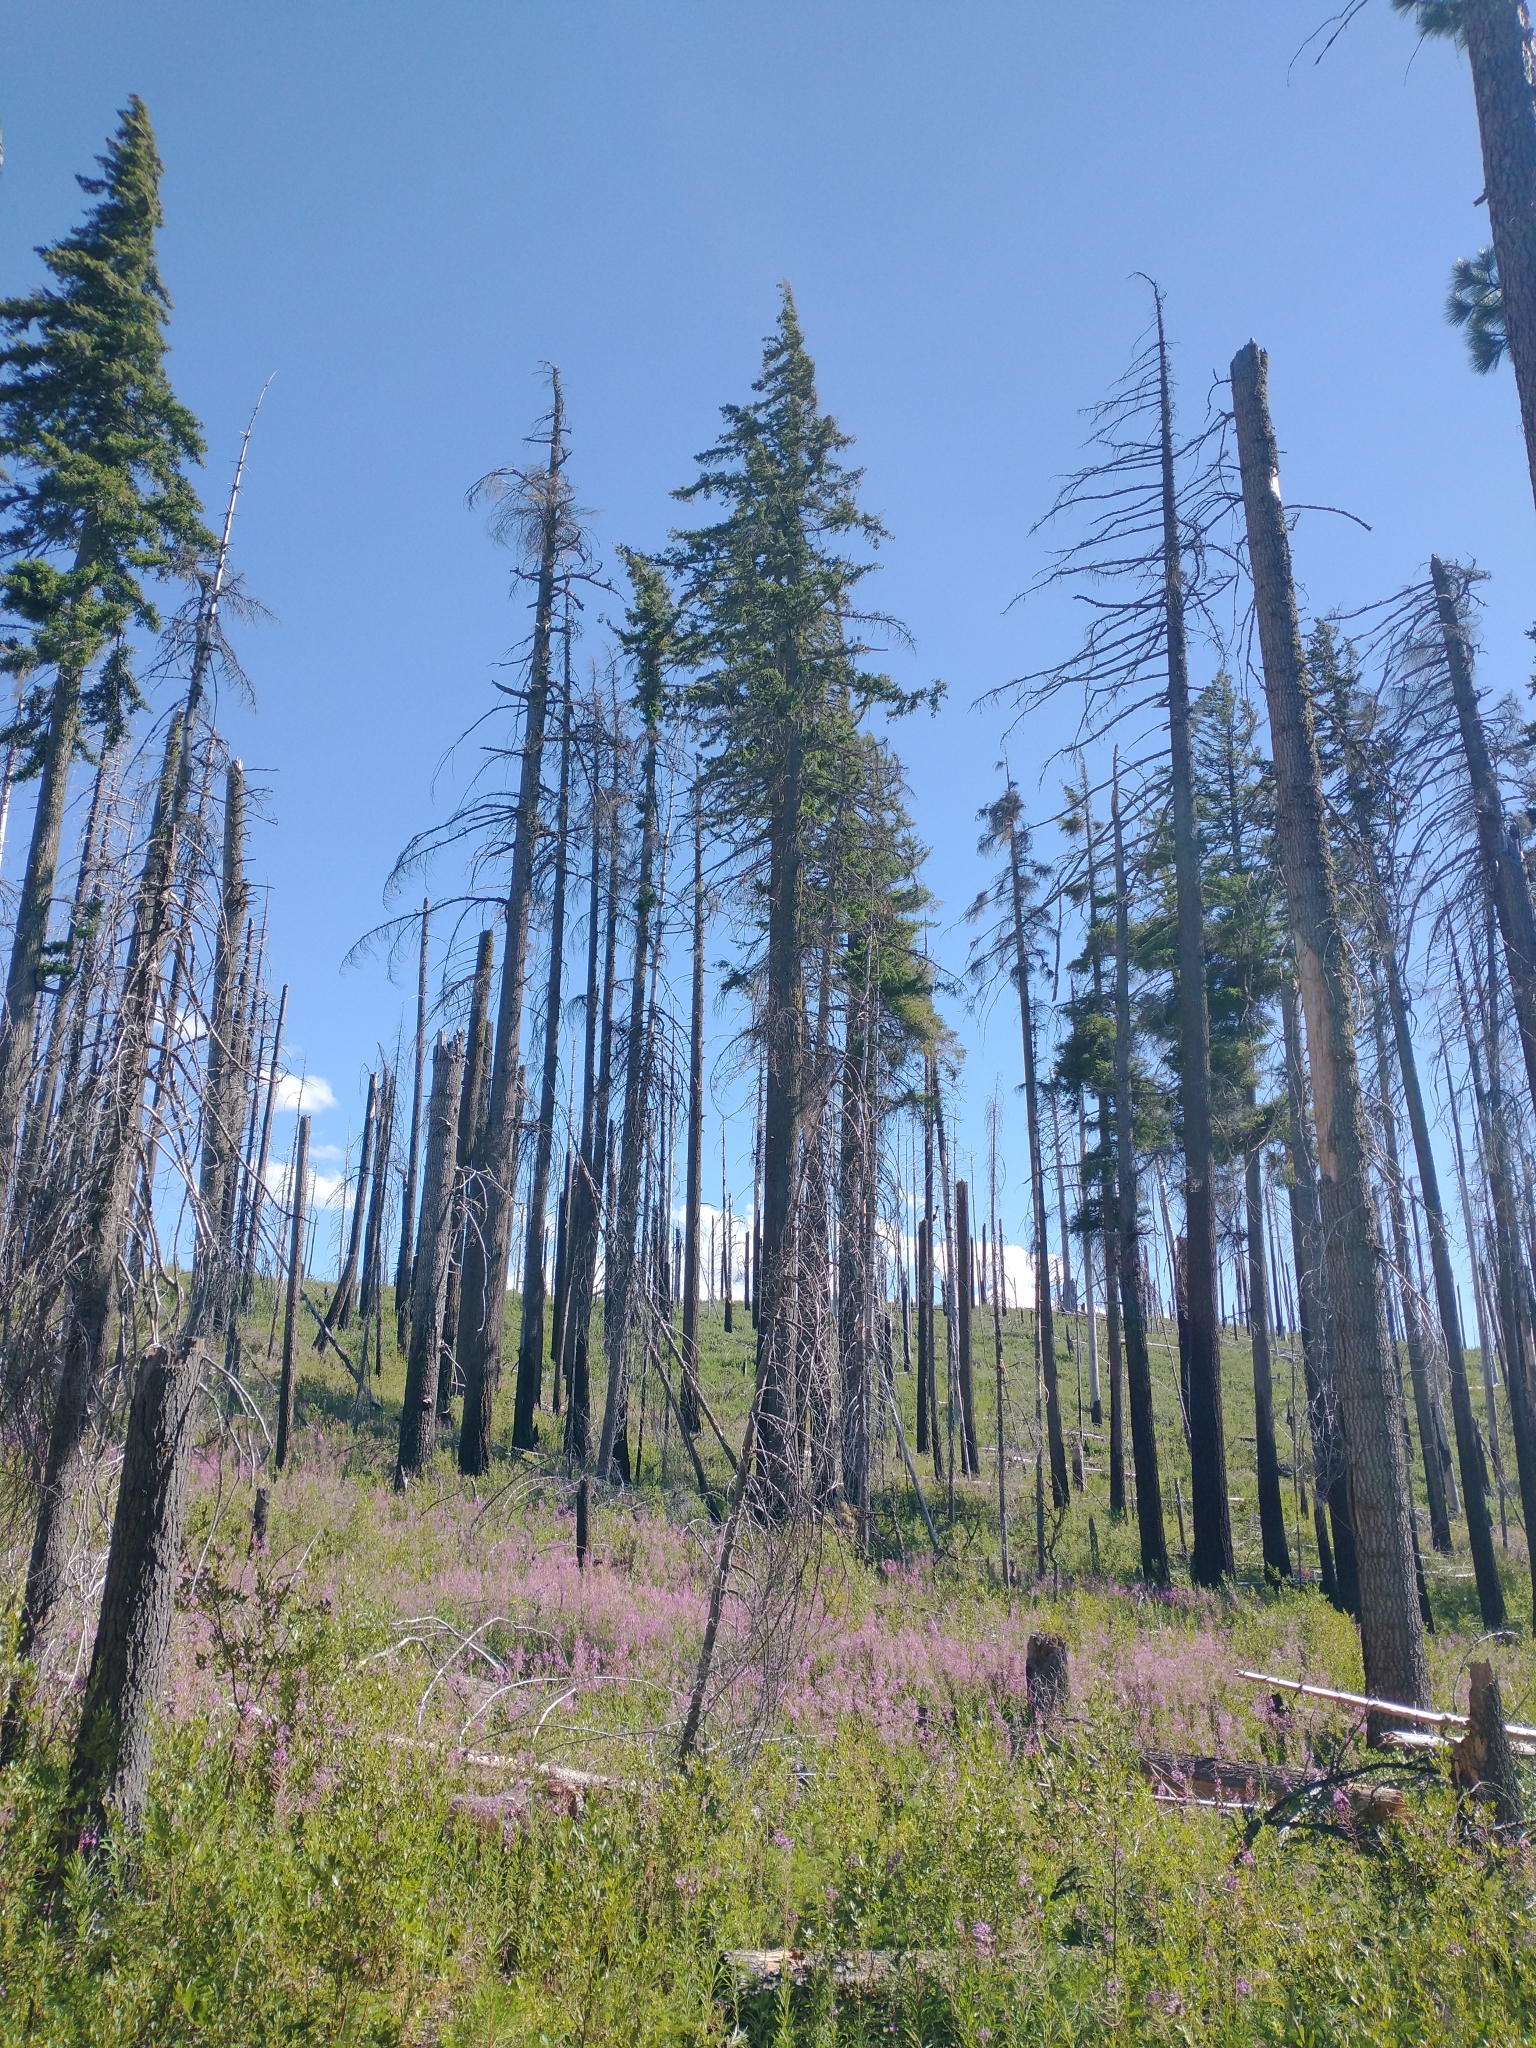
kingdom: Plantae
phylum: Tracheophyta
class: Pinopsida
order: Pinales
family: Pinaceae
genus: Pseudotsuga
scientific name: Pseudotsuga menziesii
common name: Douglas fir
